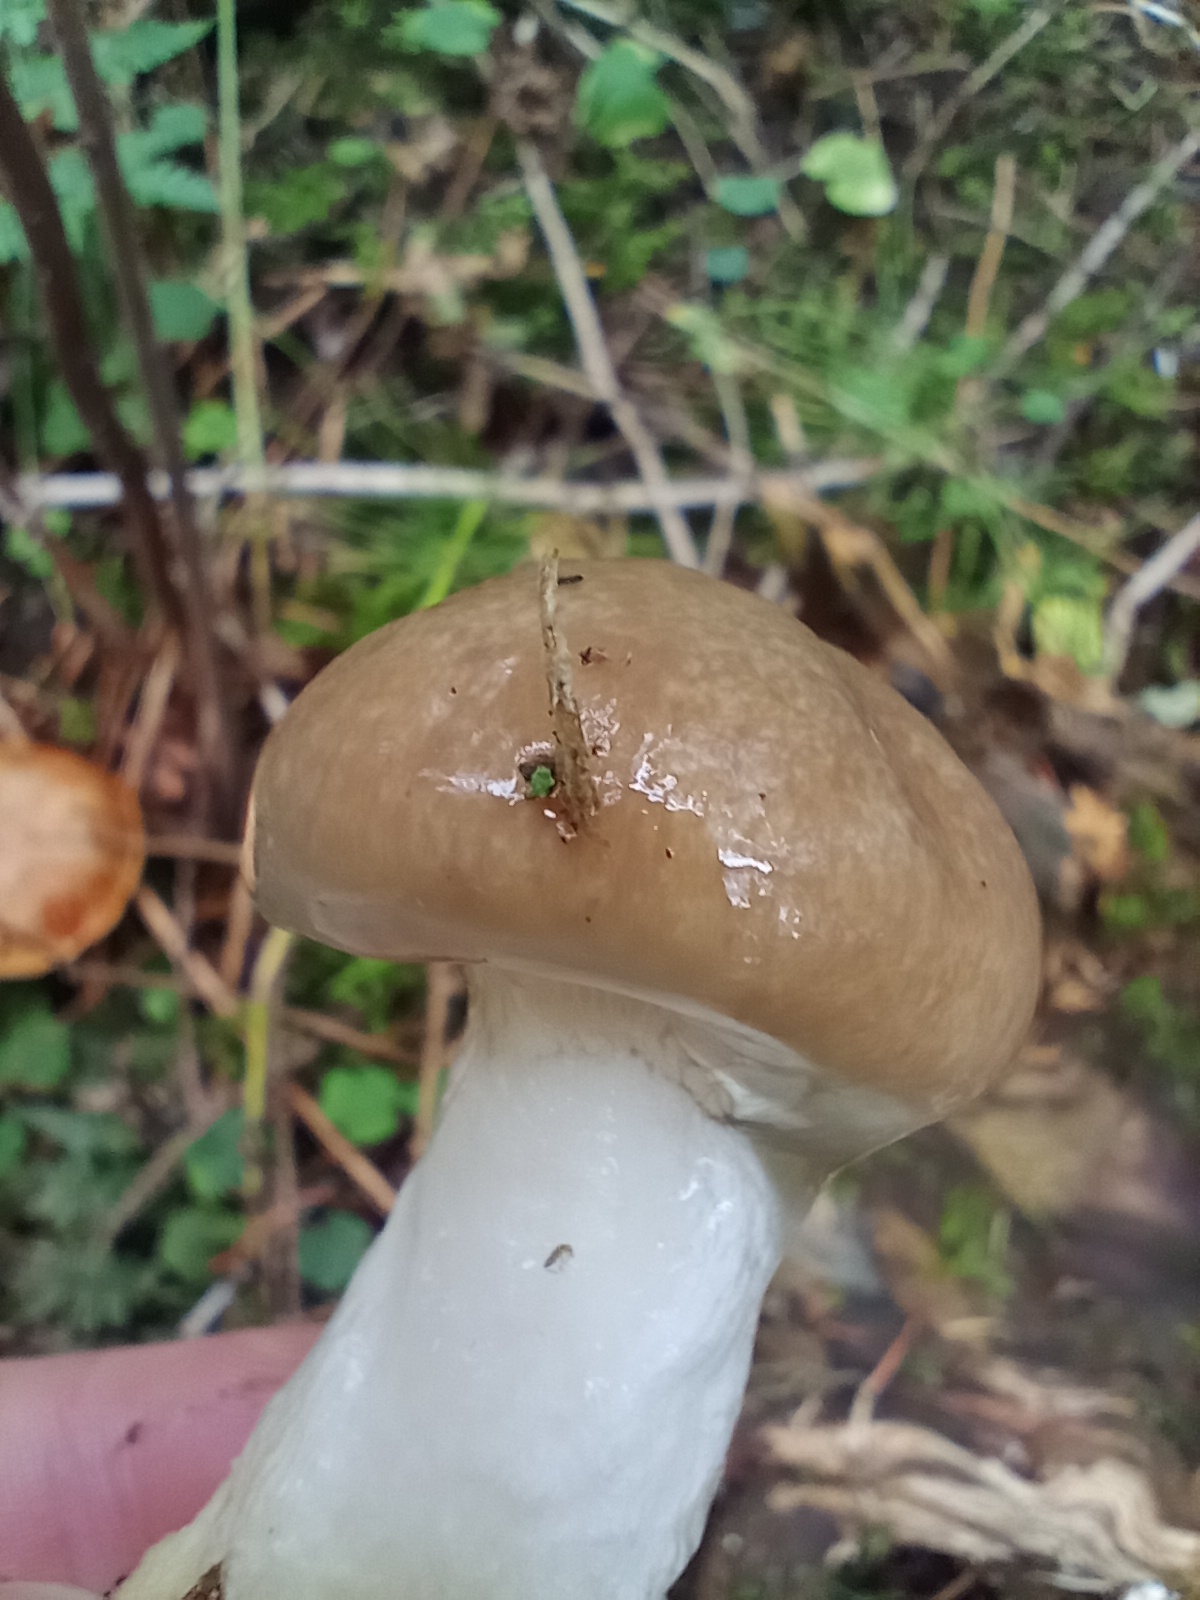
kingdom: Fungi
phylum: Basidiomycota
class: Agaricomycetes
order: Boletales
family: Gomphidiaceae
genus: Gomphidius
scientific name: Gomphidius glutinosus
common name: Slimy spike
